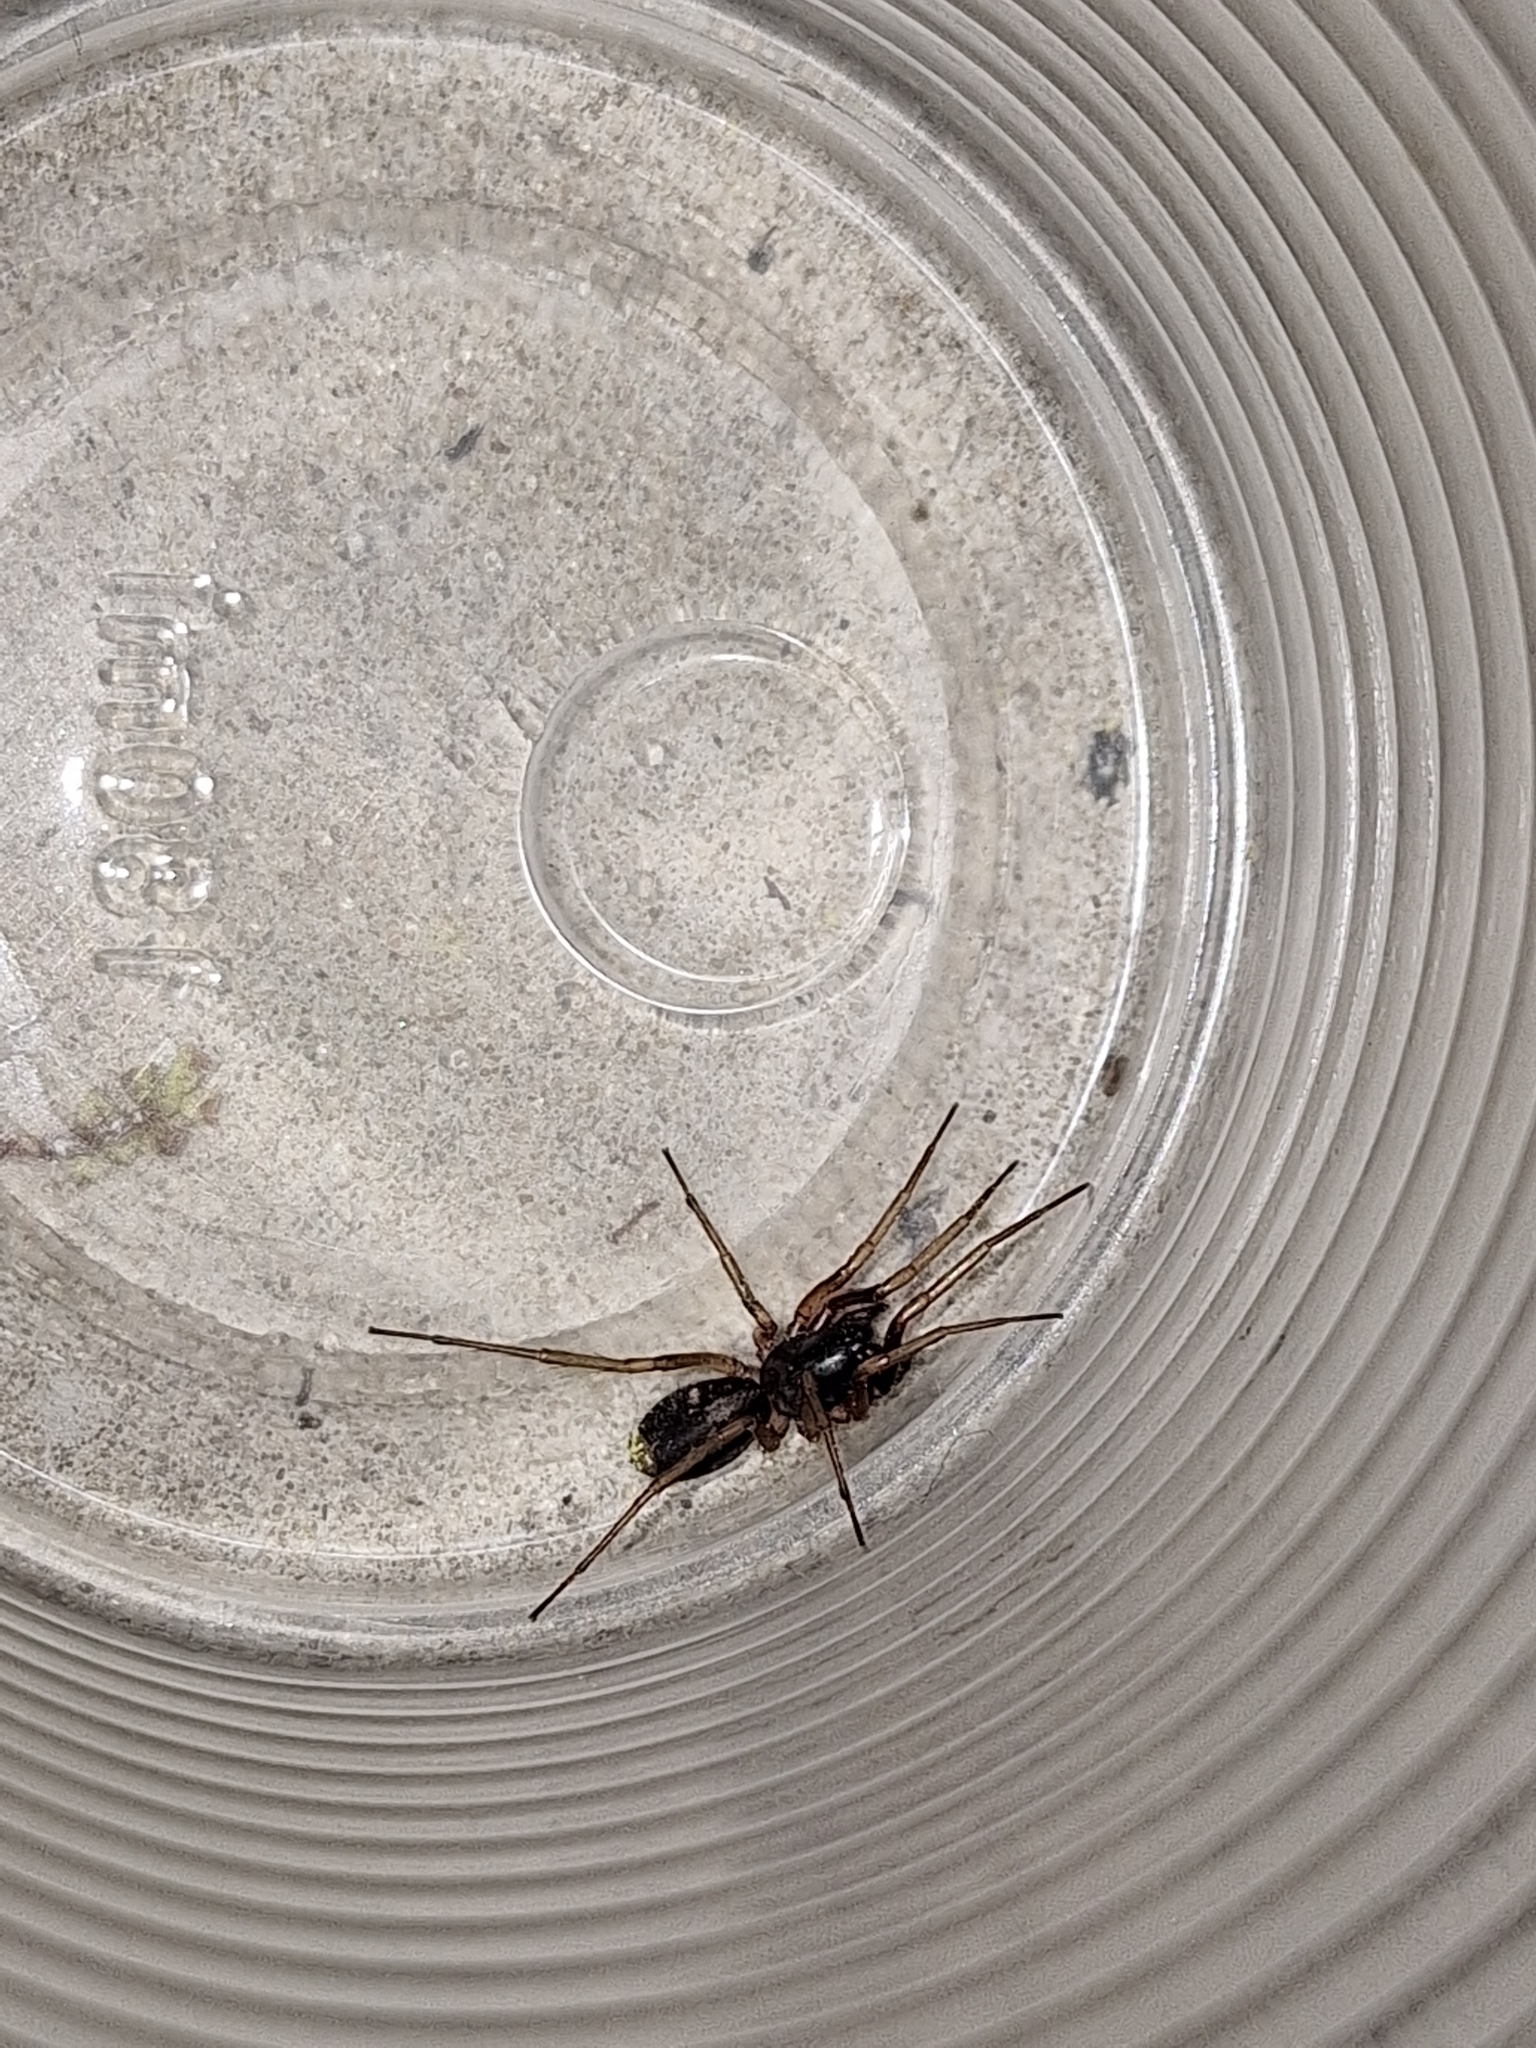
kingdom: Animalia
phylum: Arthropoda
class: Arachnida
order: Araneae
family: Corinnidae
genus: Falconina
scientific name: Falconina gracilis
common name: Antmimic spider
